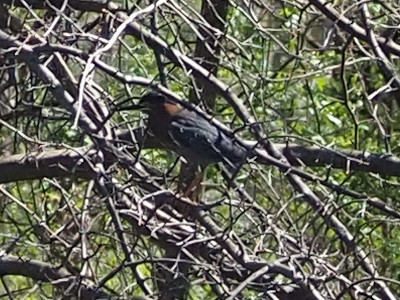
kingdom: Animalia
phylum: Chordata
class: Aves
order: Pelecaniformes
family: Ardeidae
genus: Butorides
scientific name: Butorides virescens
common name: Green heron
